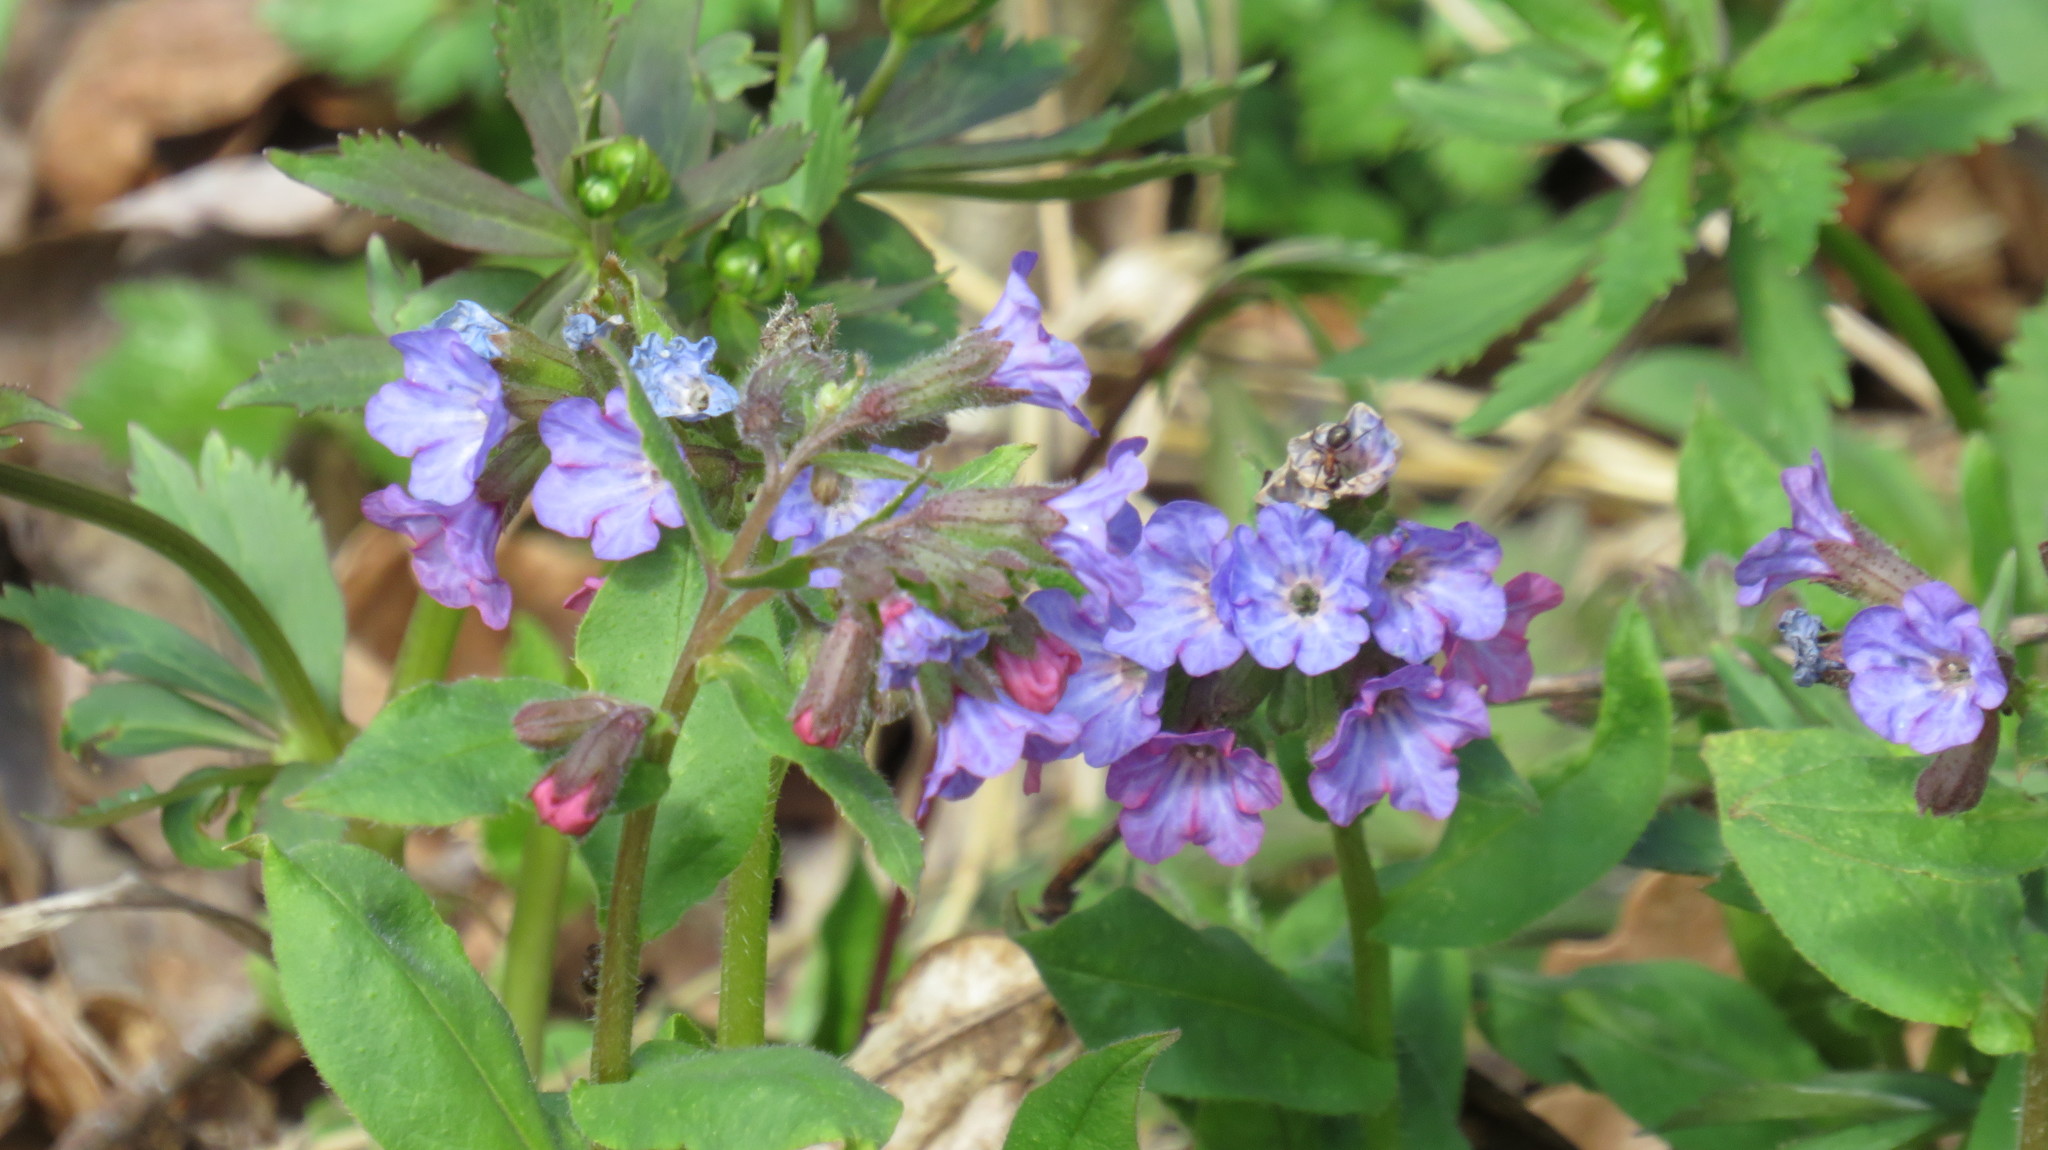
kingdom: Plantae
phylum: Tracheophyta
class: Magnoliopsida
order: Boraginales
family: Boraginaceae
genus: Pulmonaria
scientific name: Pulmonaria obscura
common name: Suffolk lungwort
